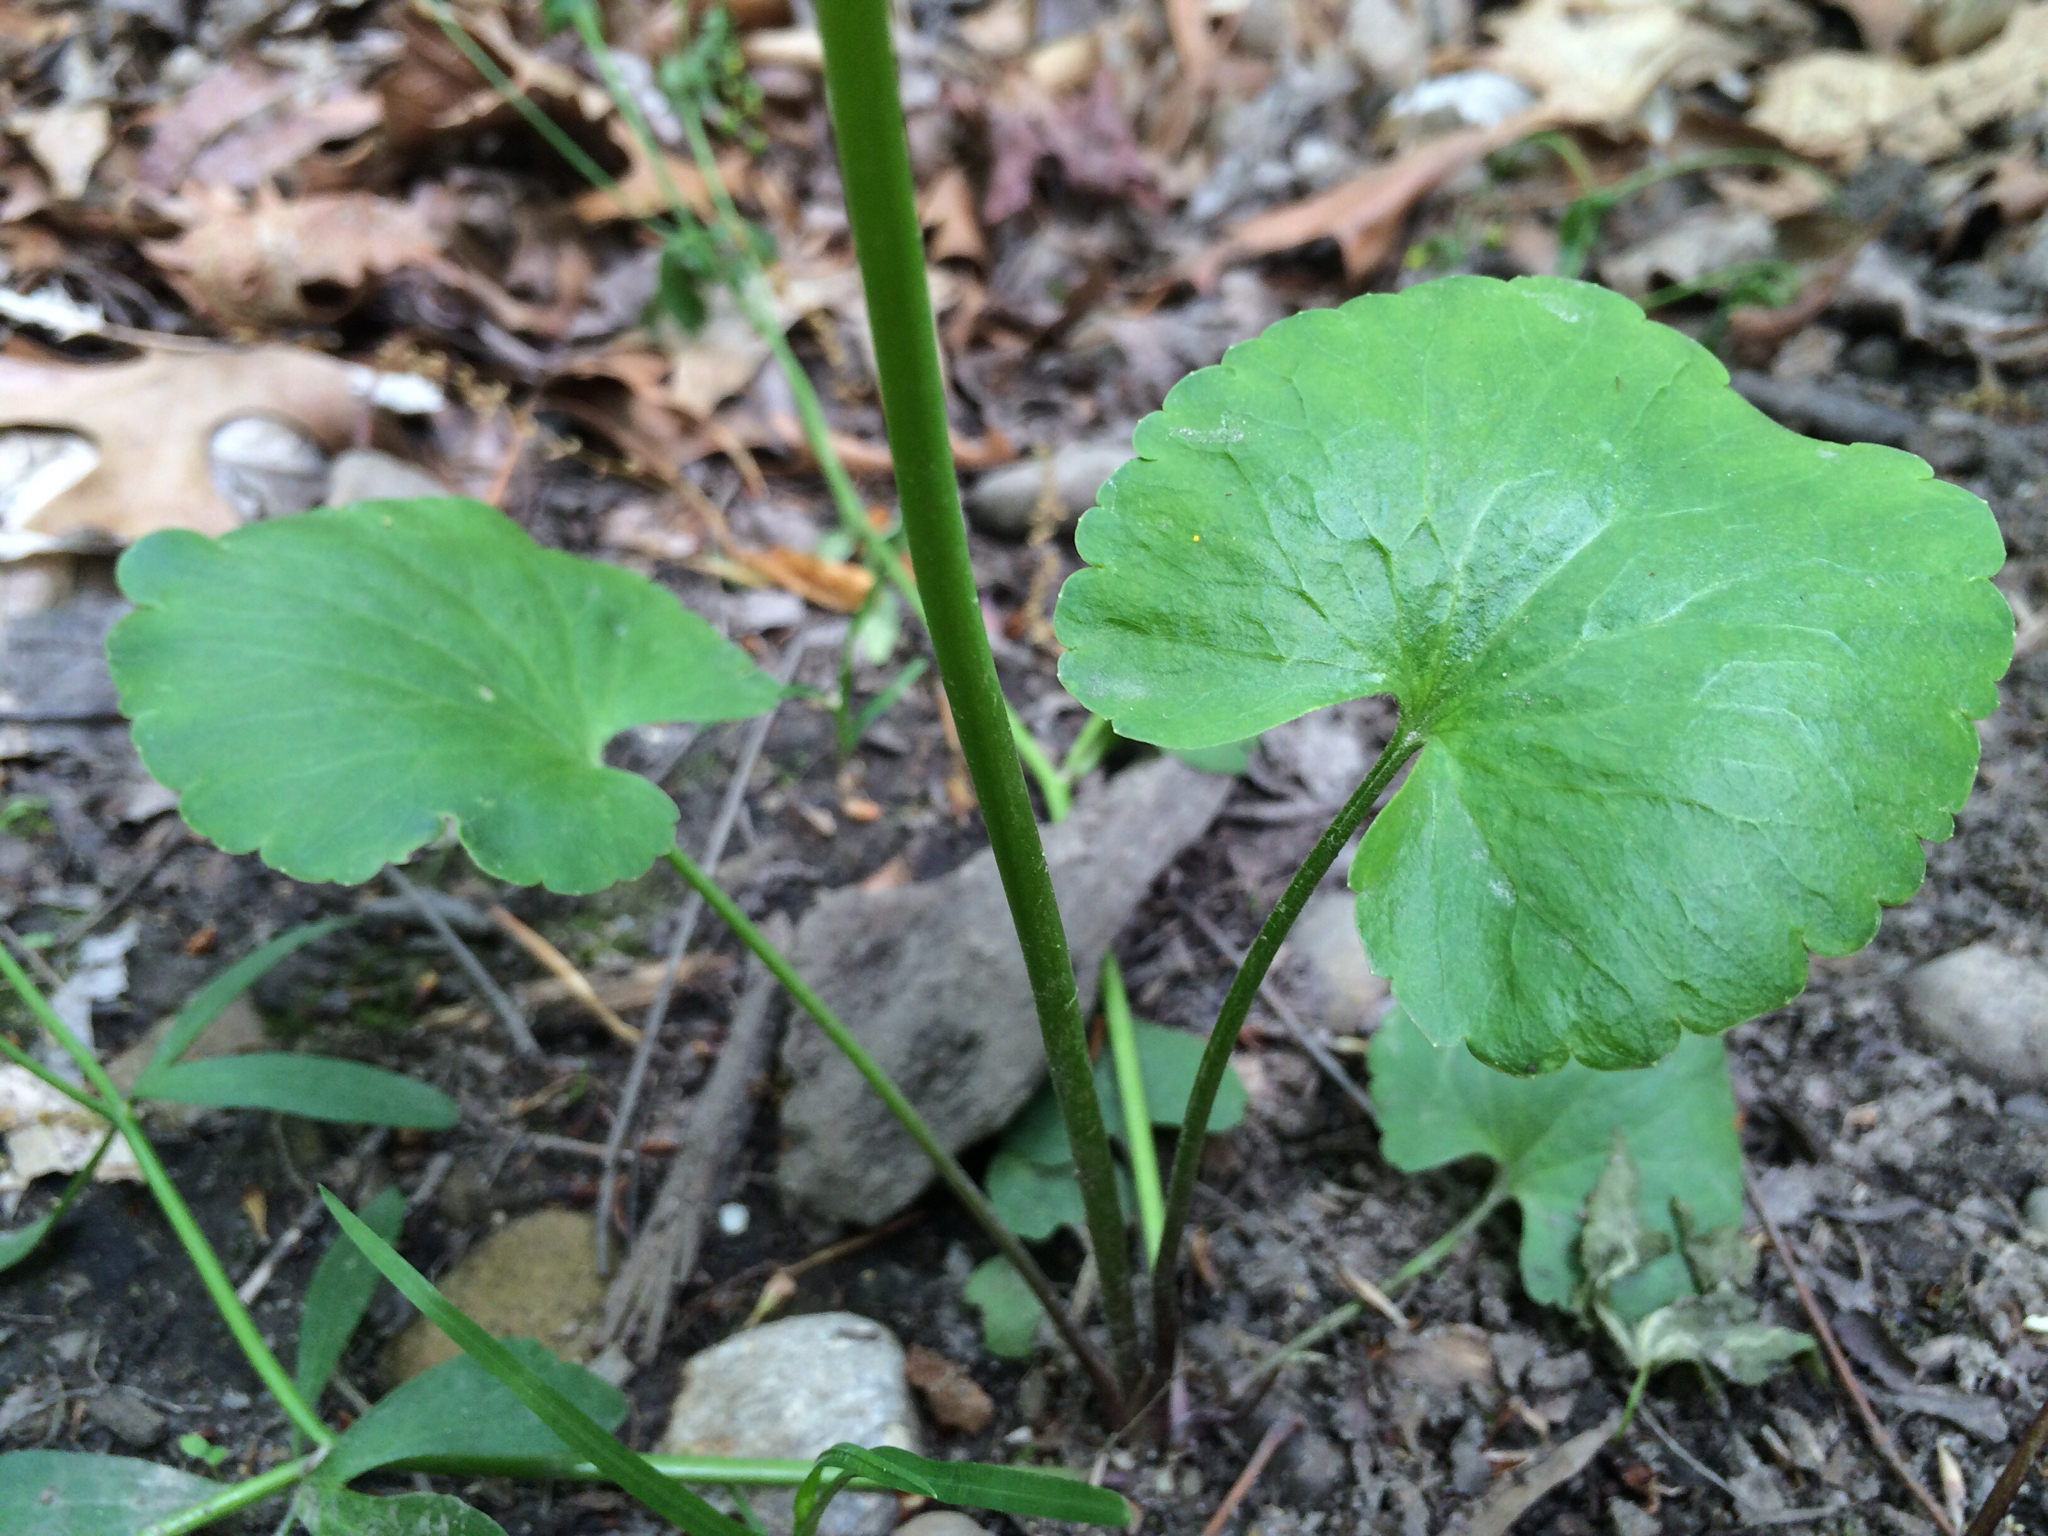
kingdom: Plantae
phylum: Tracheophyta
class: Magnoliopsida
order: Ranunculales
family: Ranunculaceae
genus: Ranunculus
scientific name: Ranunculus abortivus
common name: Early wood buttercup
